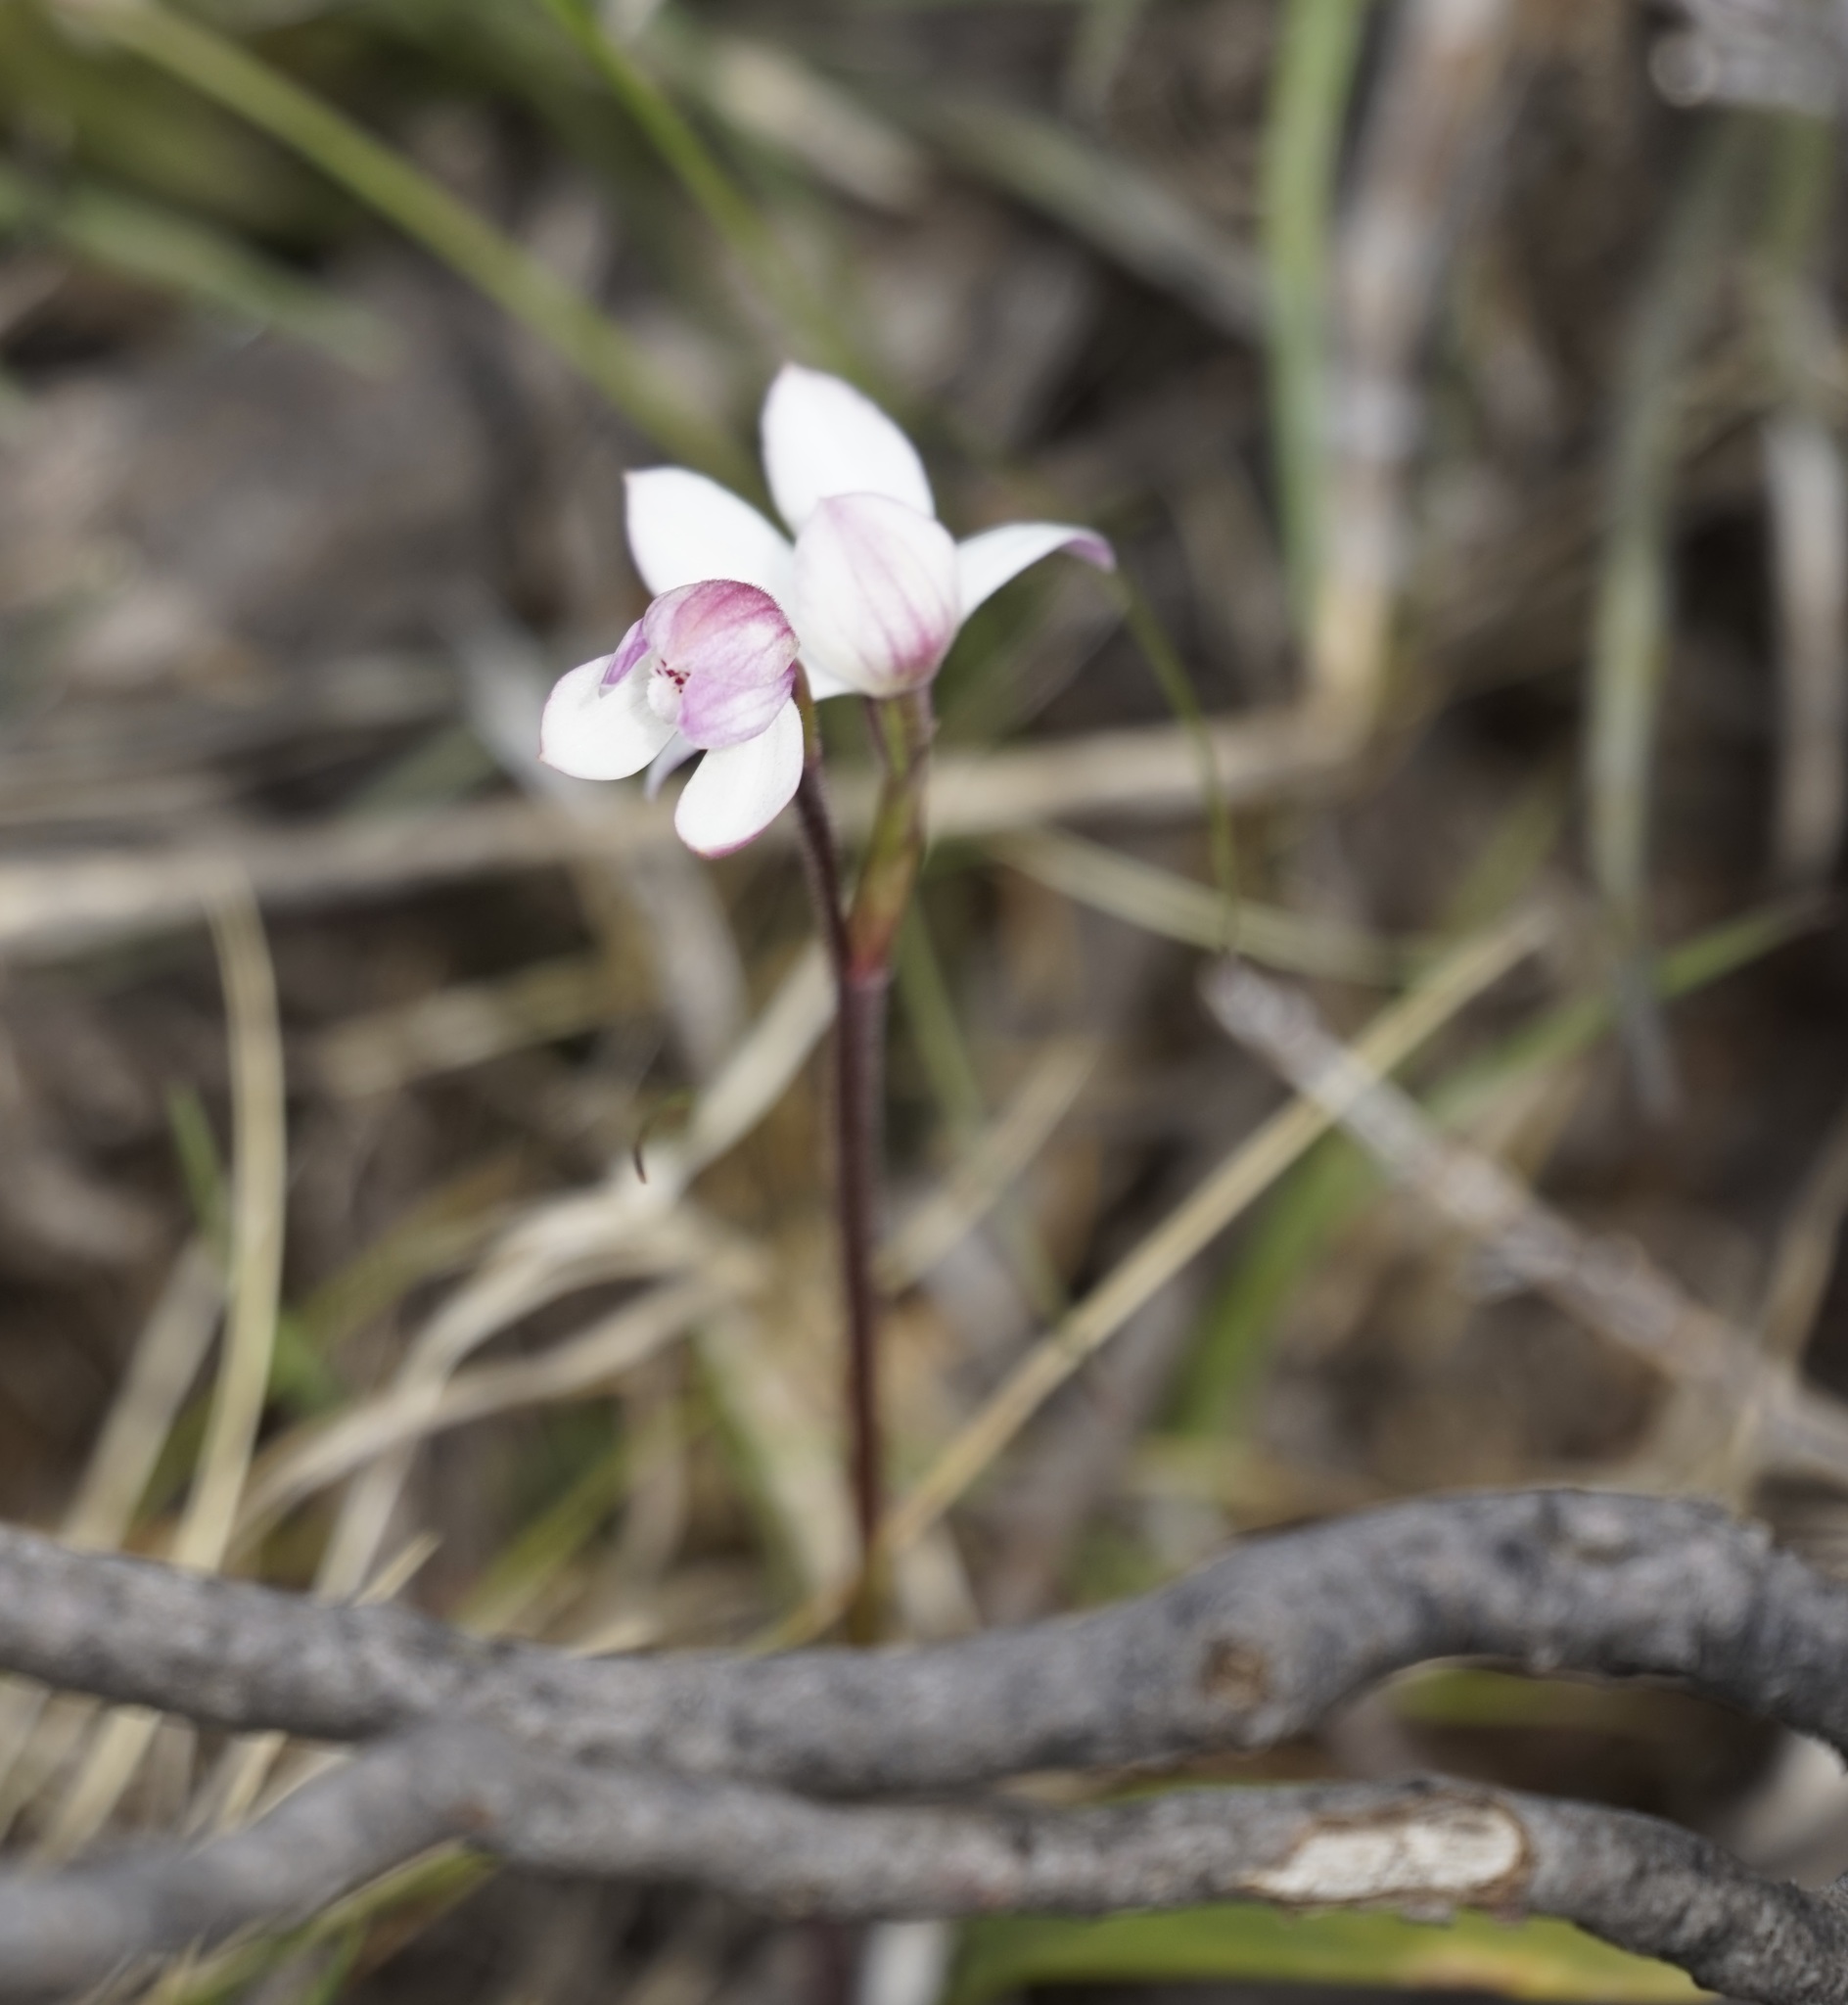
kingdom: Plantae
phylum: Tracheophyta
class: Liliopsida
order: Asparagales
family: Orchidaceae
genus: Caladenia
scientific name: Caladenia alpina
